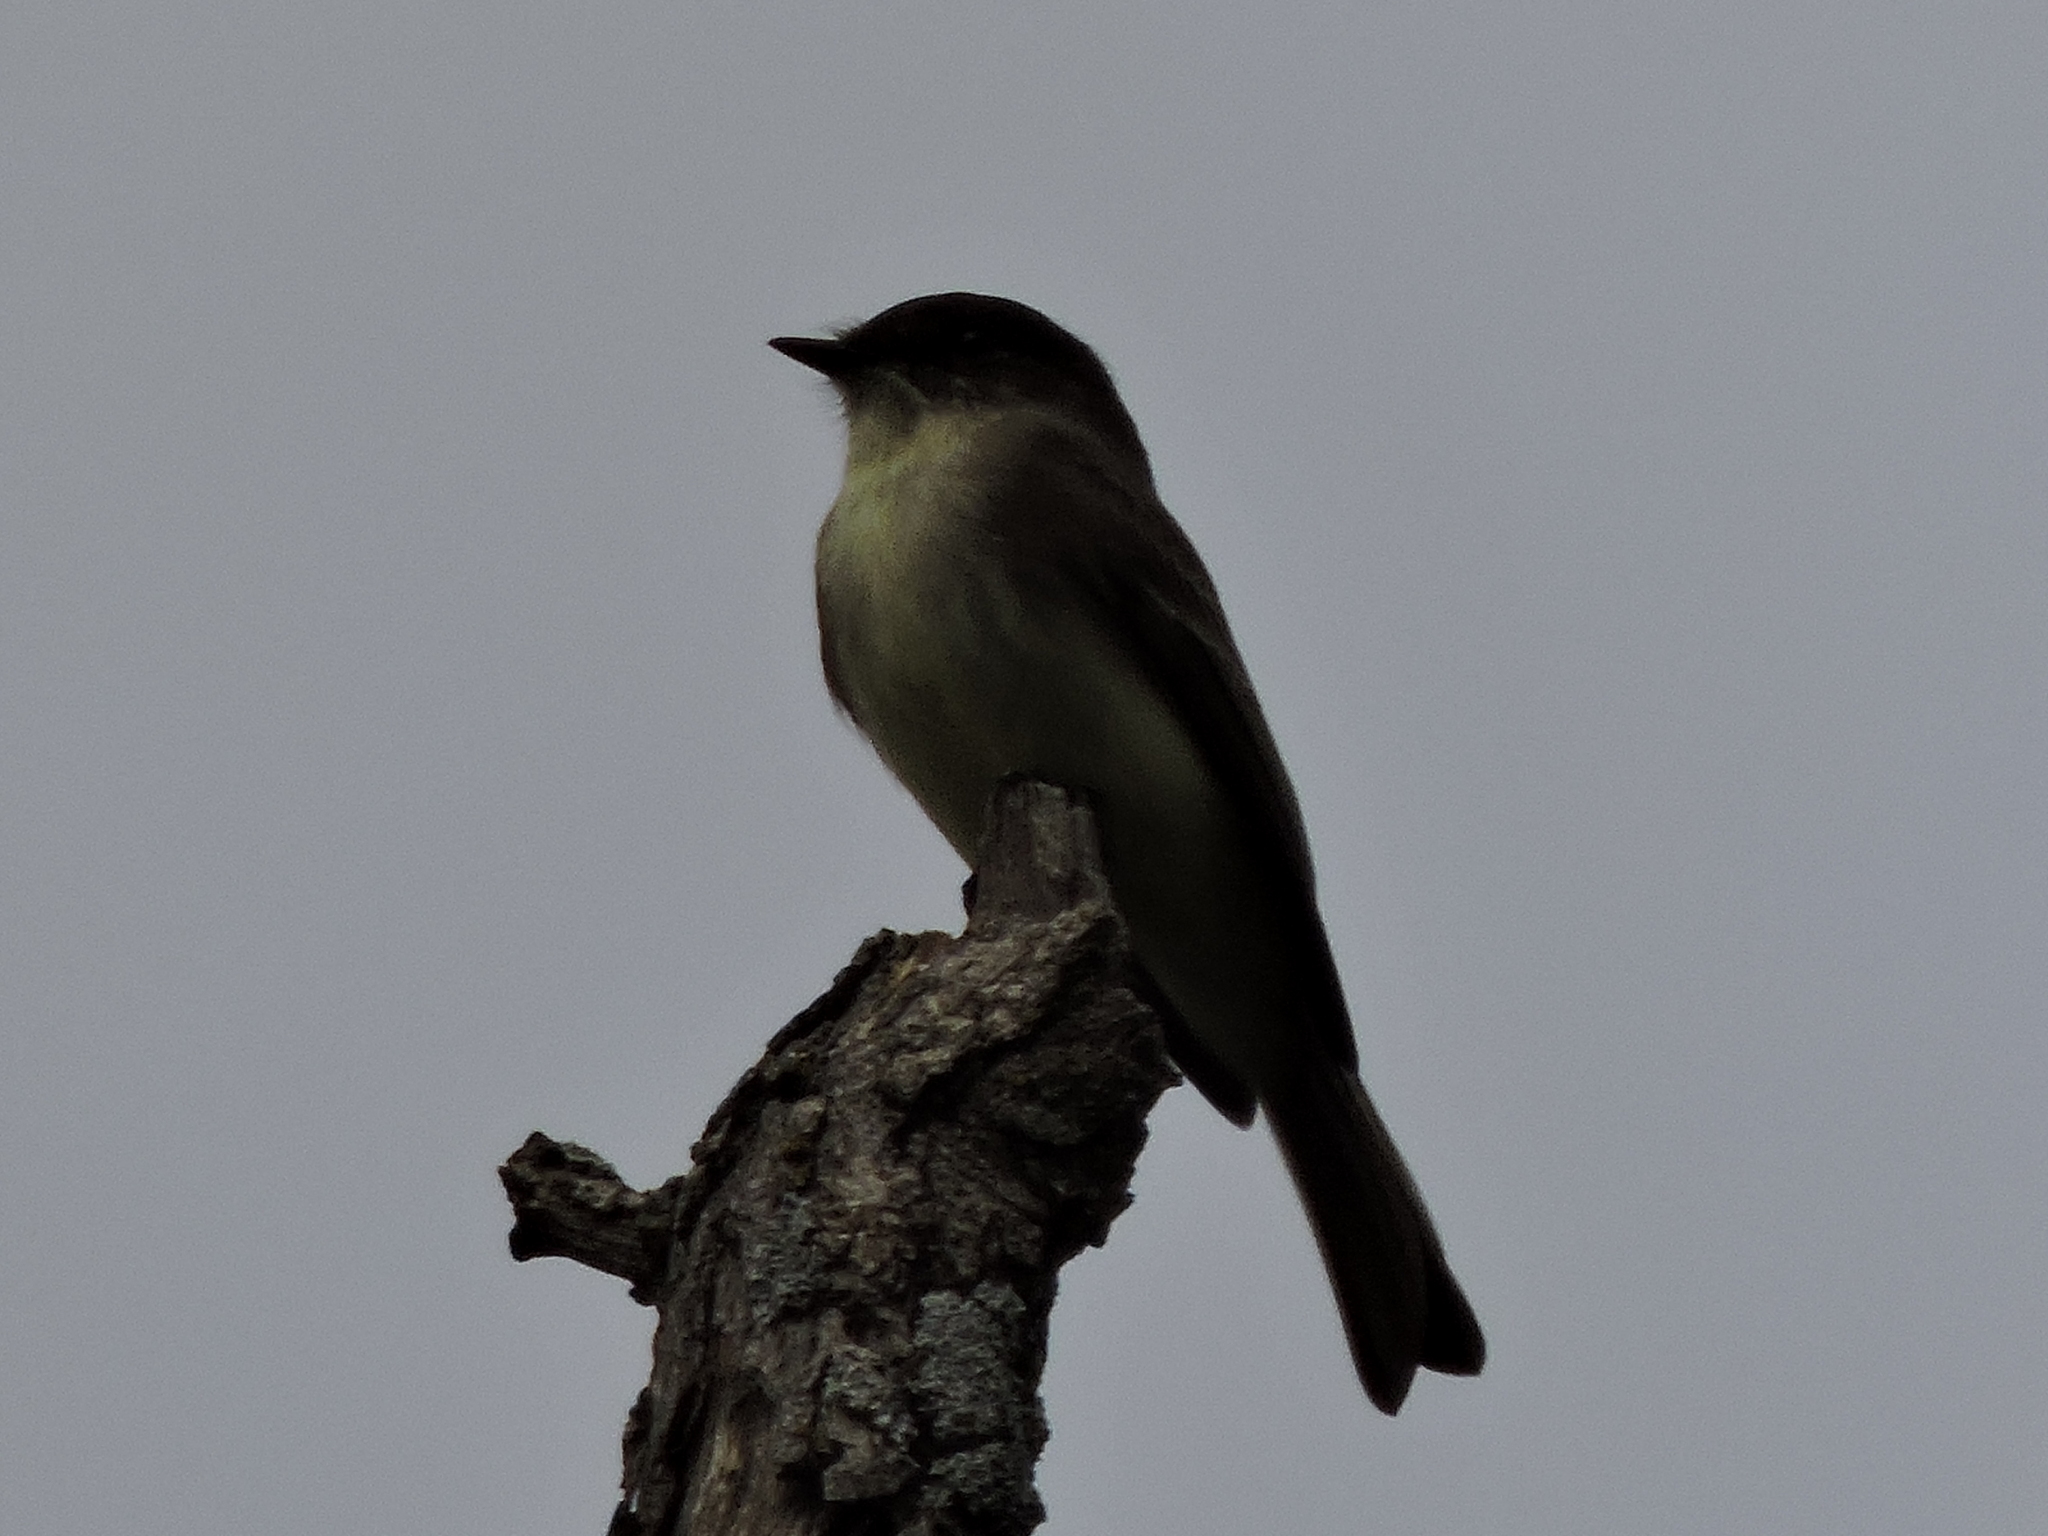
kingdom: Animalia
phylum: Chordata
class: Aves
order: Passeriformes
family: Tyrannidae
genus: Sayornis
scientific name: Sayornis phoebe
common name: Eastern phoebe
